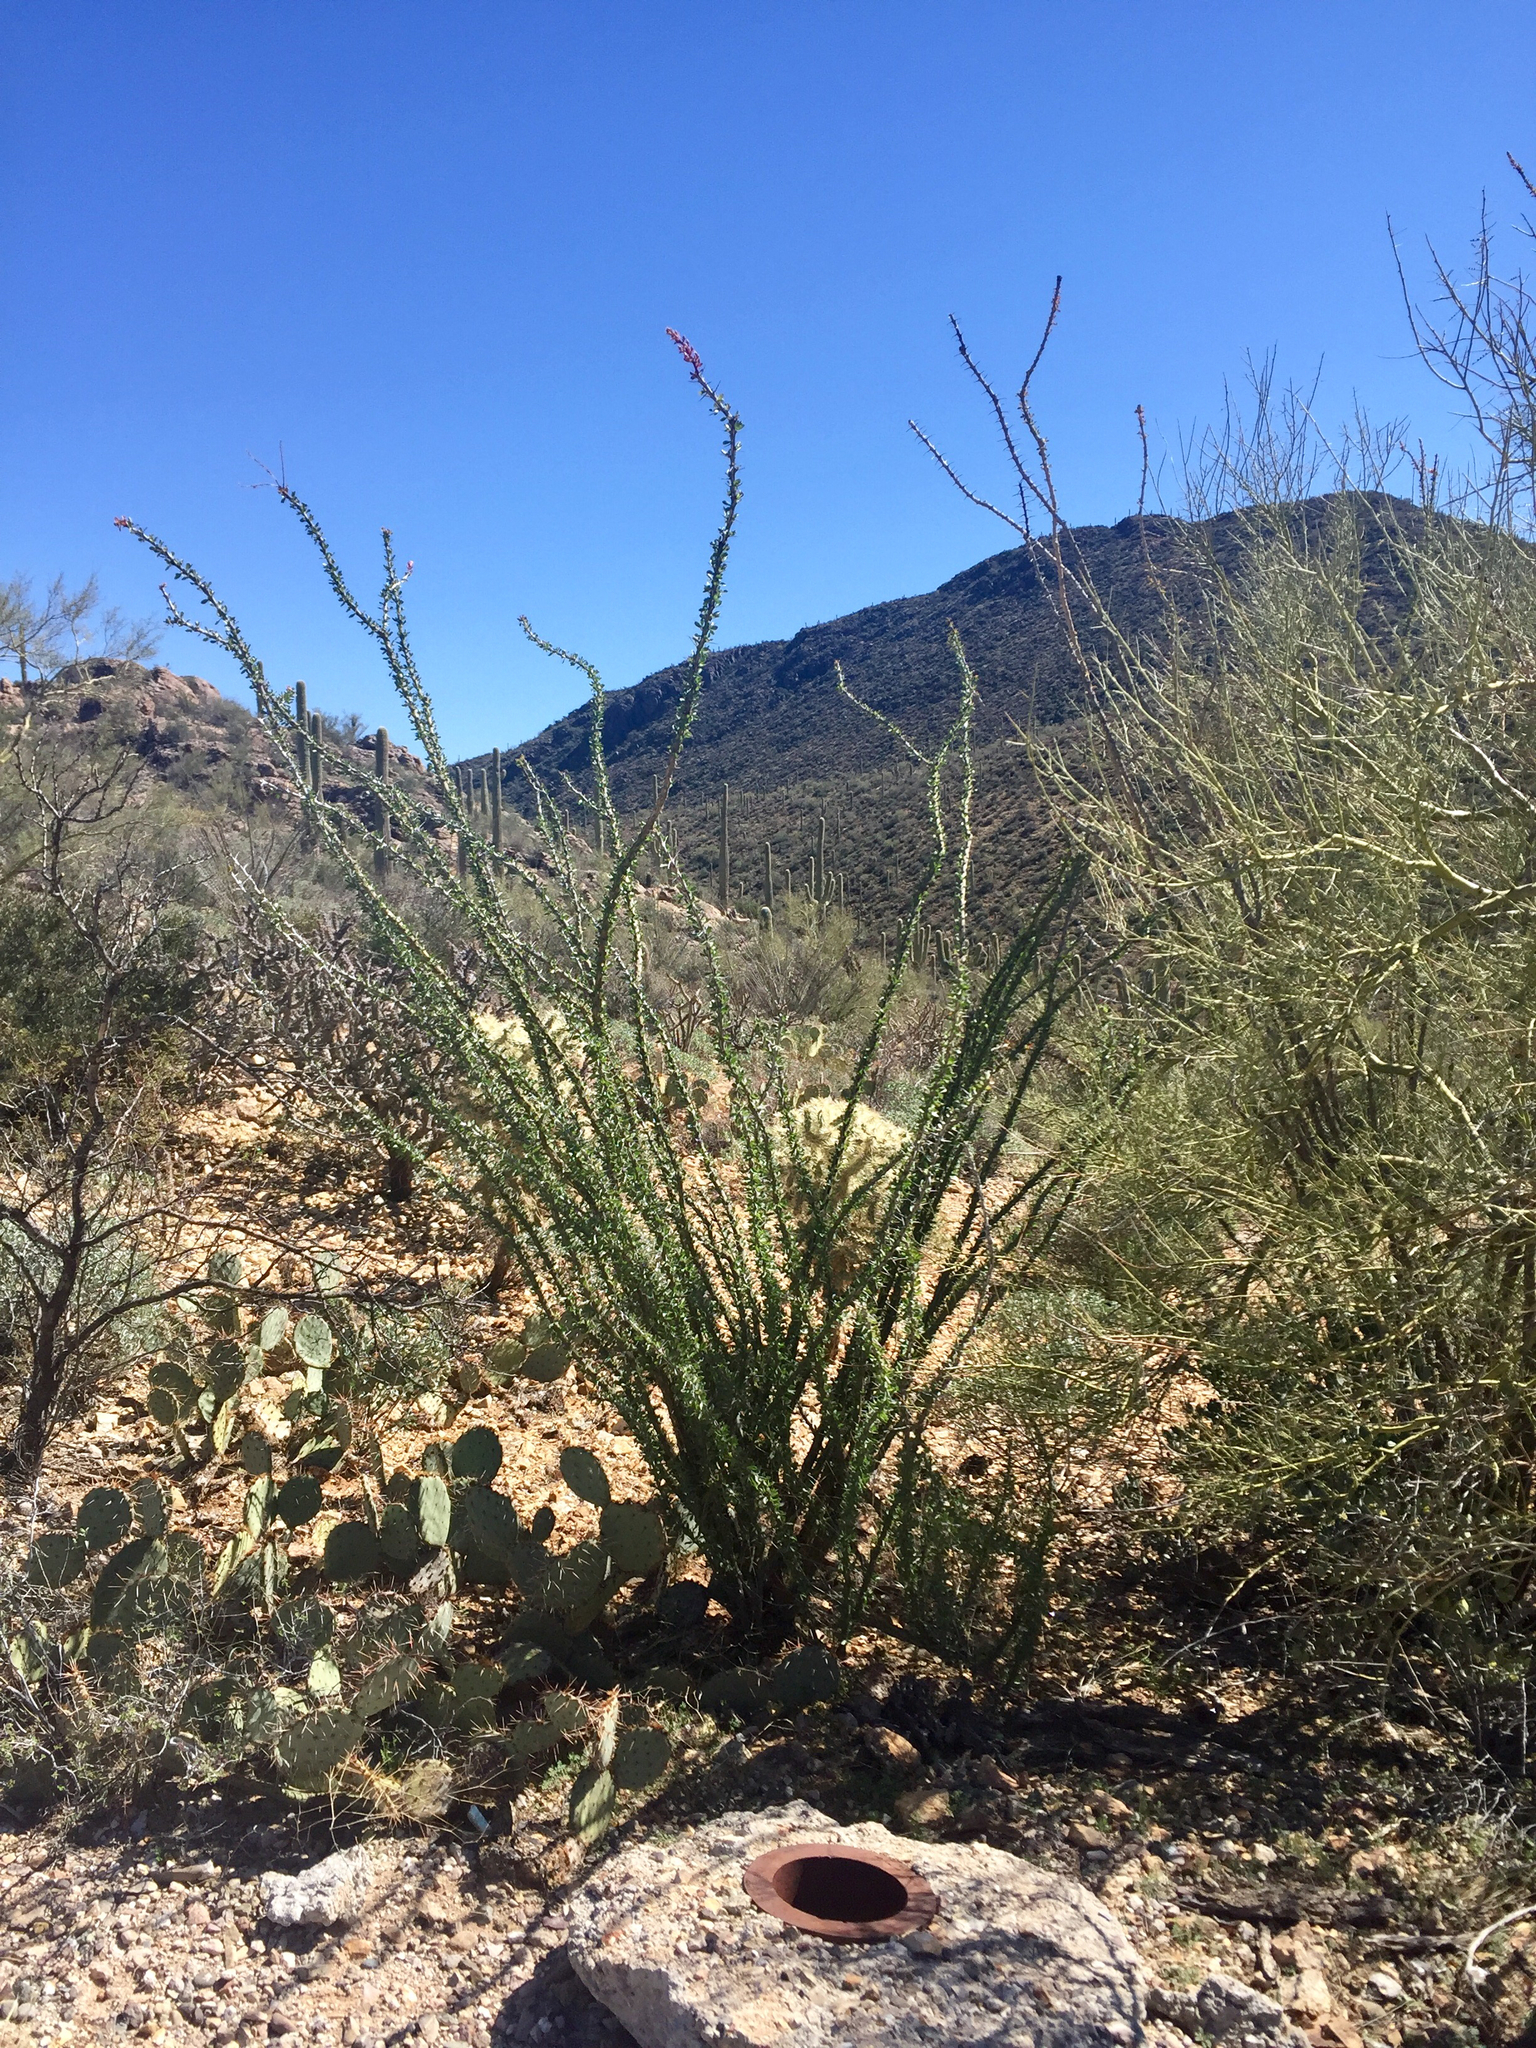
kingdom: Plantae
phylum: Tracheophyta
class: Magnoliopsida
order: Ericales
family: Fouquieriaceae
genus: Fouquieria
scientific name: Fouquieria splendens
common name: Vine-cactus
